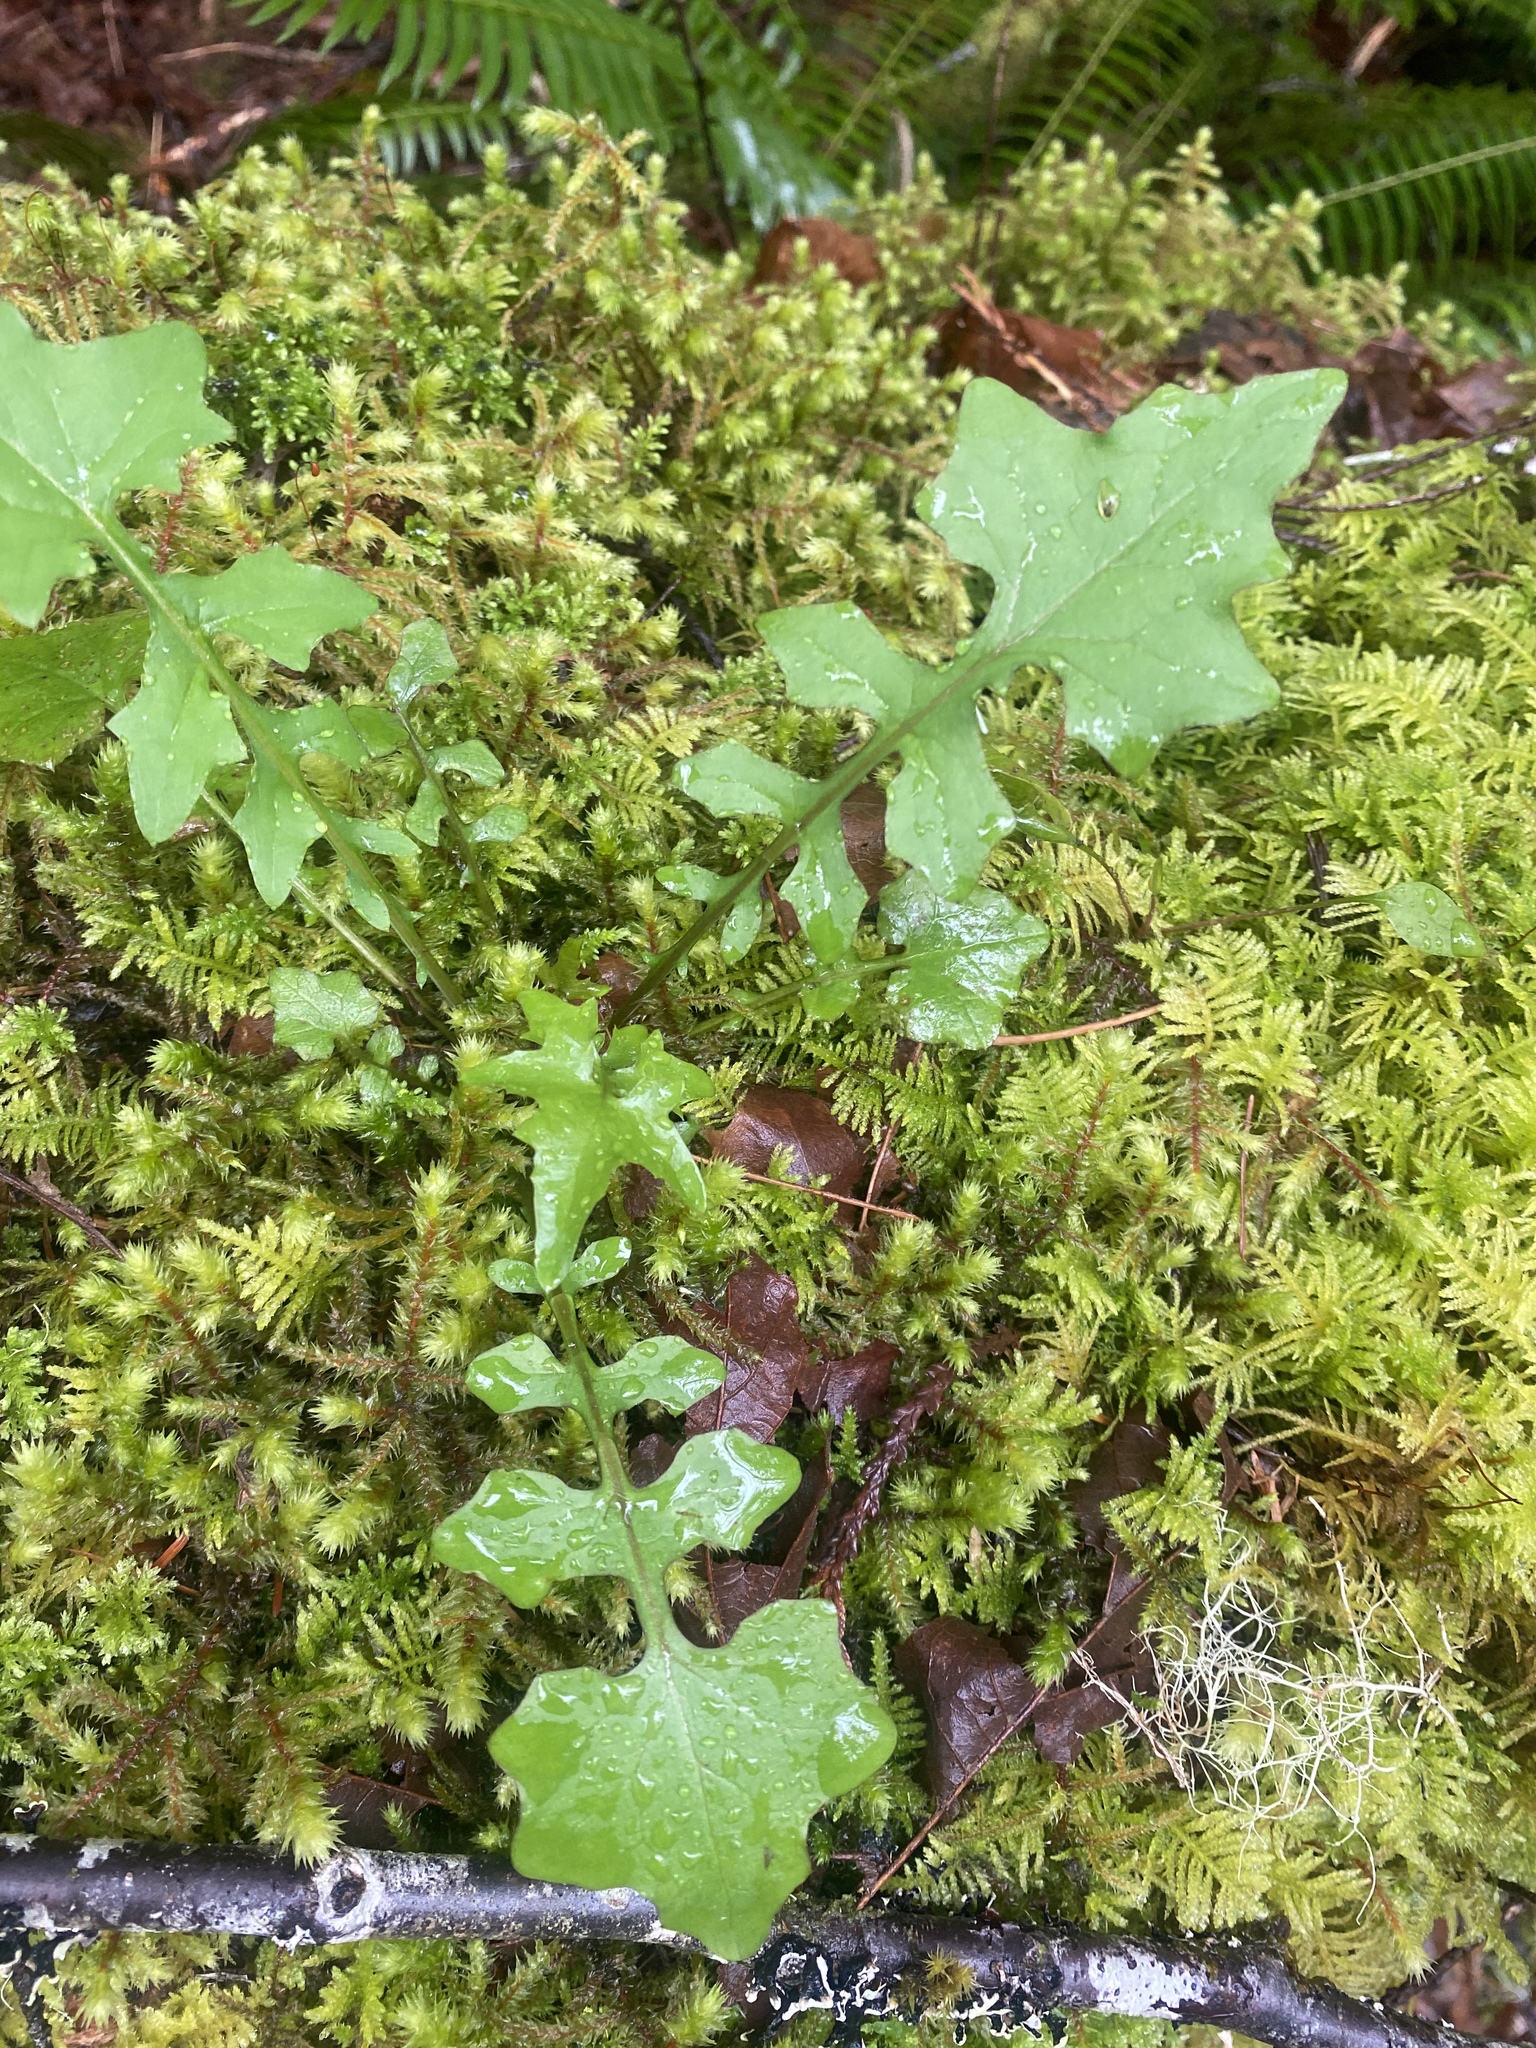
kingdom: Plantae
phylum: Tracheophyta
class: Magnoliopsida
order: Asterales
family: Asteraceae
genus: Mycelis
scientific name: Mycelis muralis
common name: Wall lettuce
